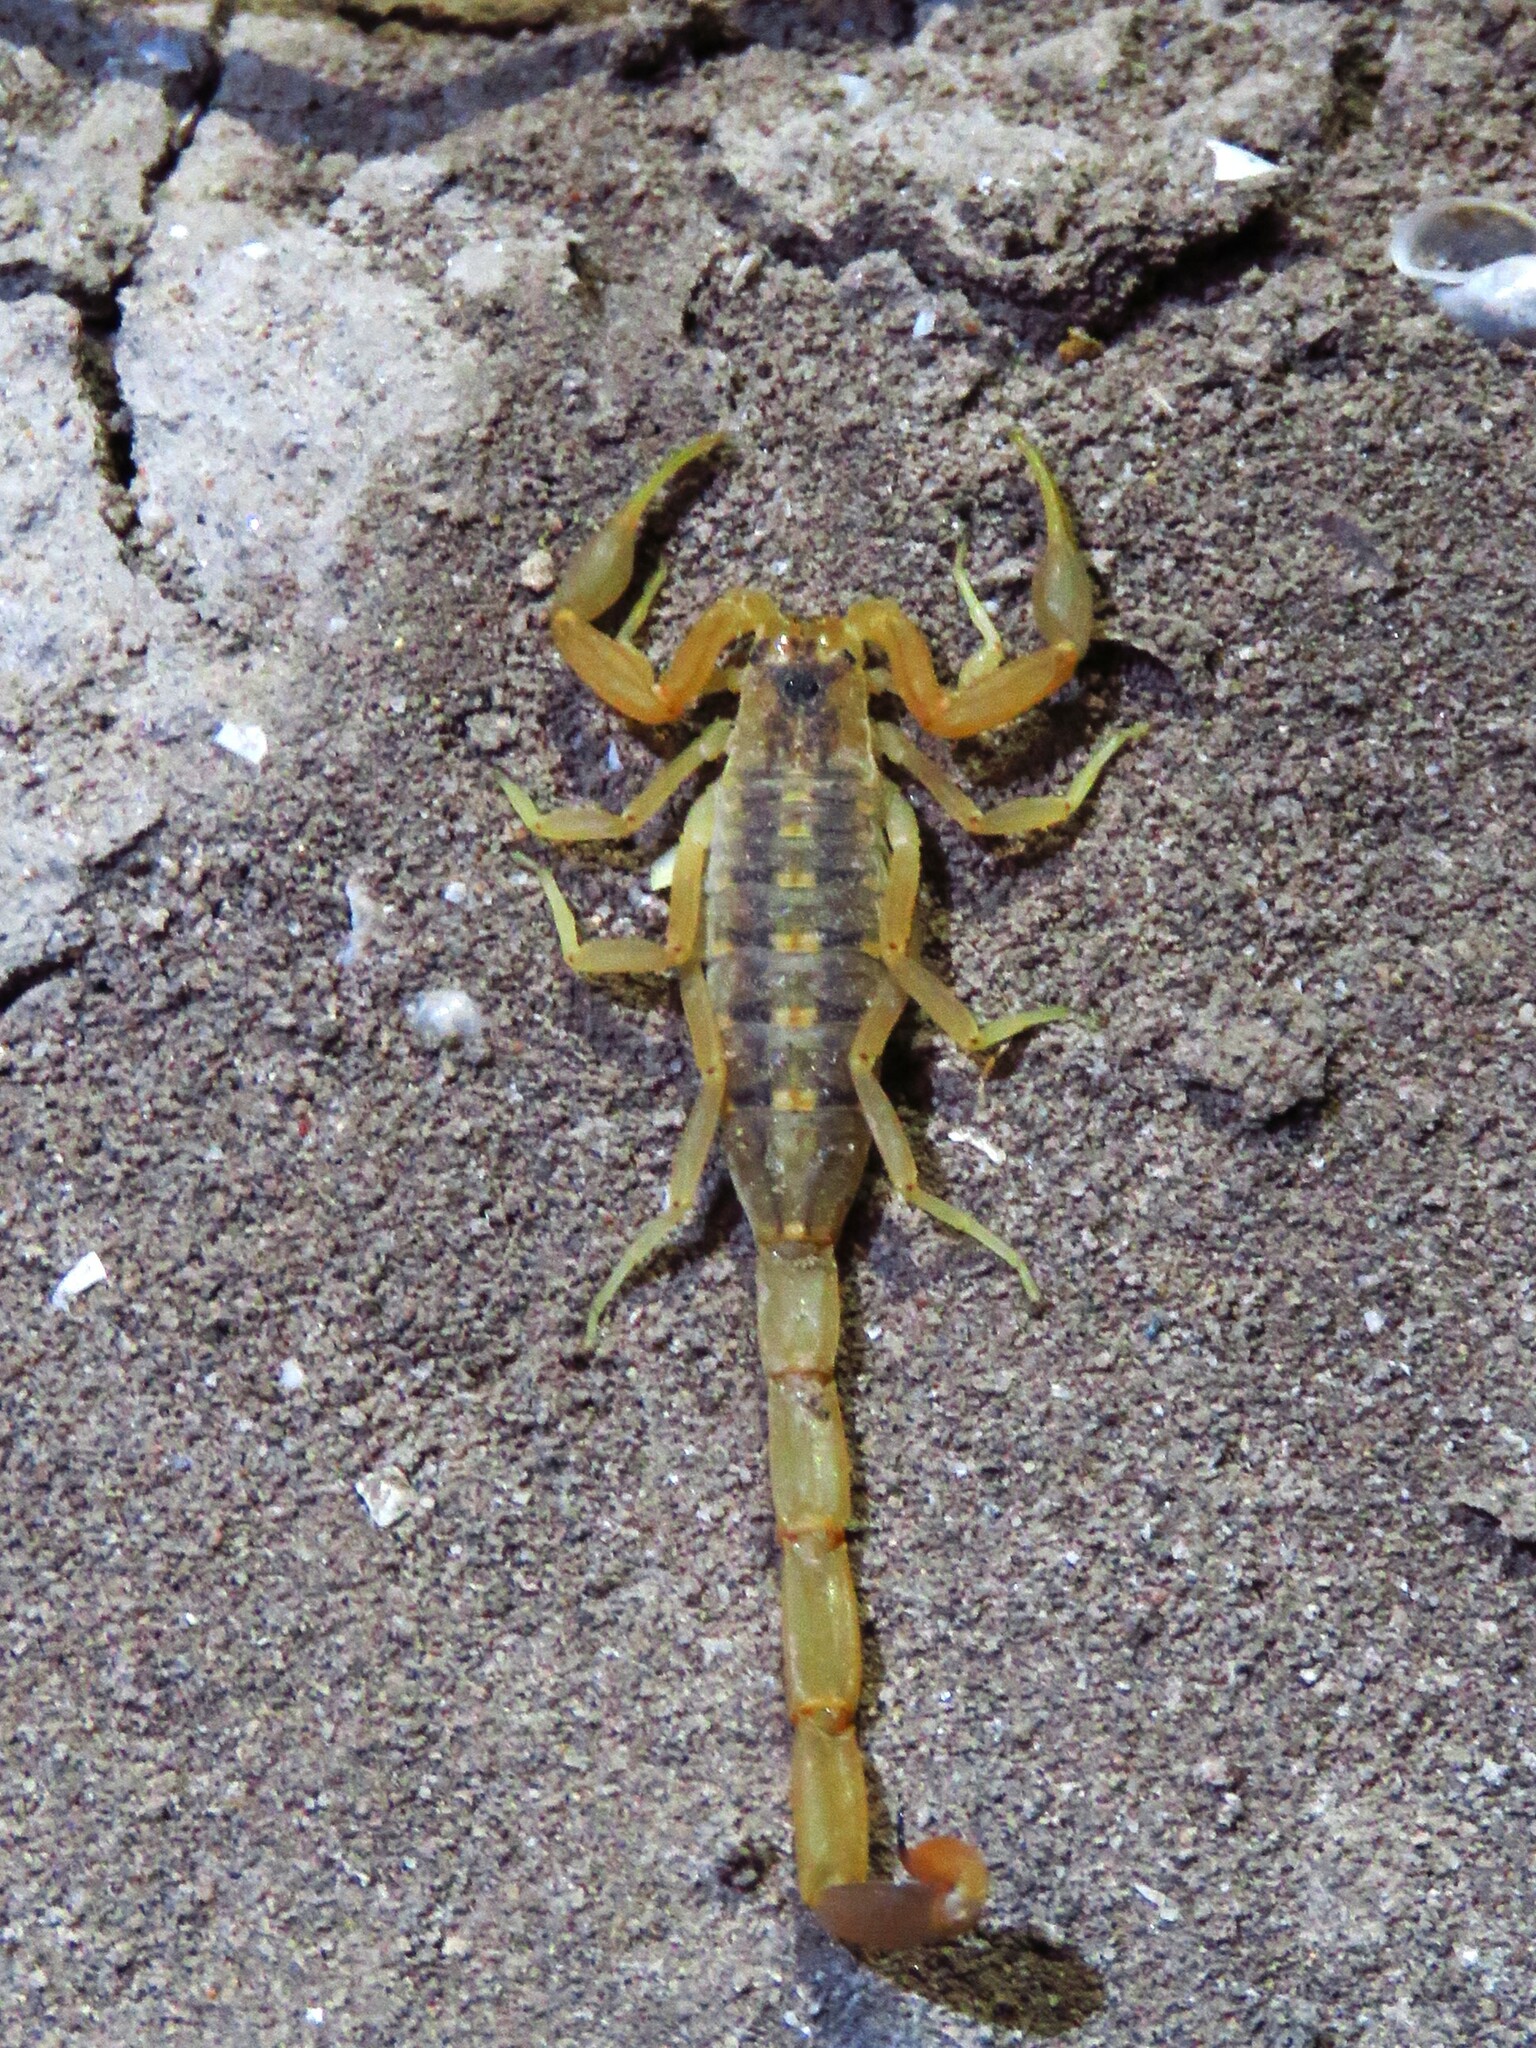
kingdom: Animalia
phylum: Arthropoda
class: Arachnida
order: Scorpiones
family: Buthidae
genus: Centruroides
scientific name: Centruroides vittatus
